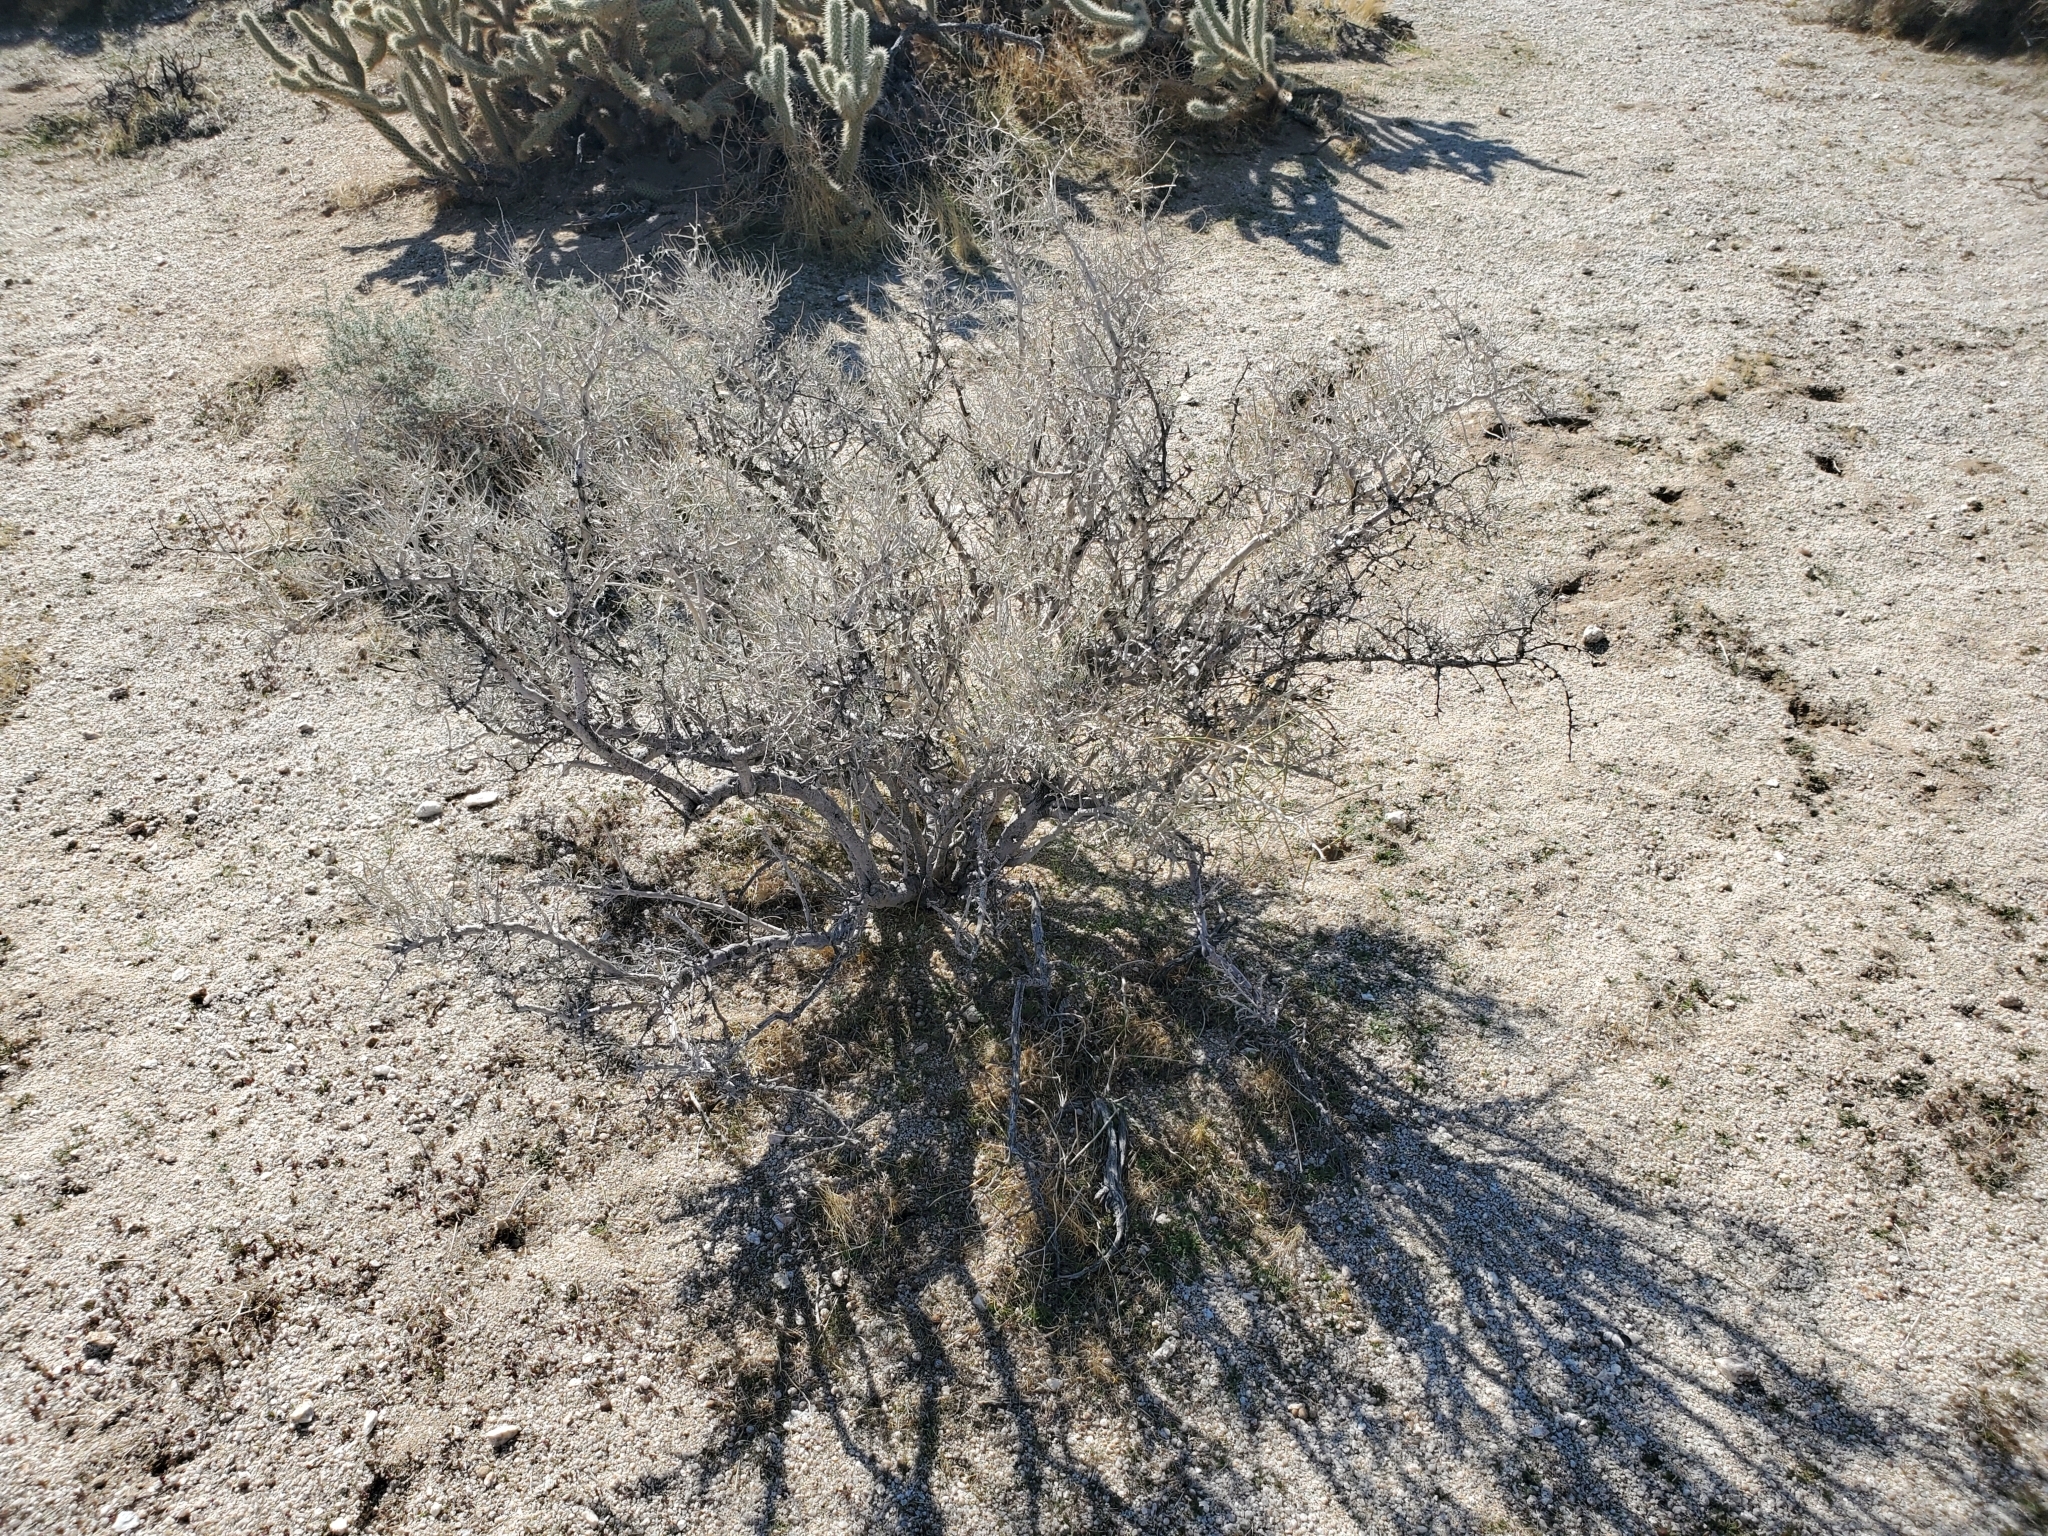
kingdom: Plantae
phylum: Tracheophyta
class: Magnoliopsida
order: Fabales
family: Fabaceae
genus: Psorothamnus
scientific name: Psorothamnus schottii
